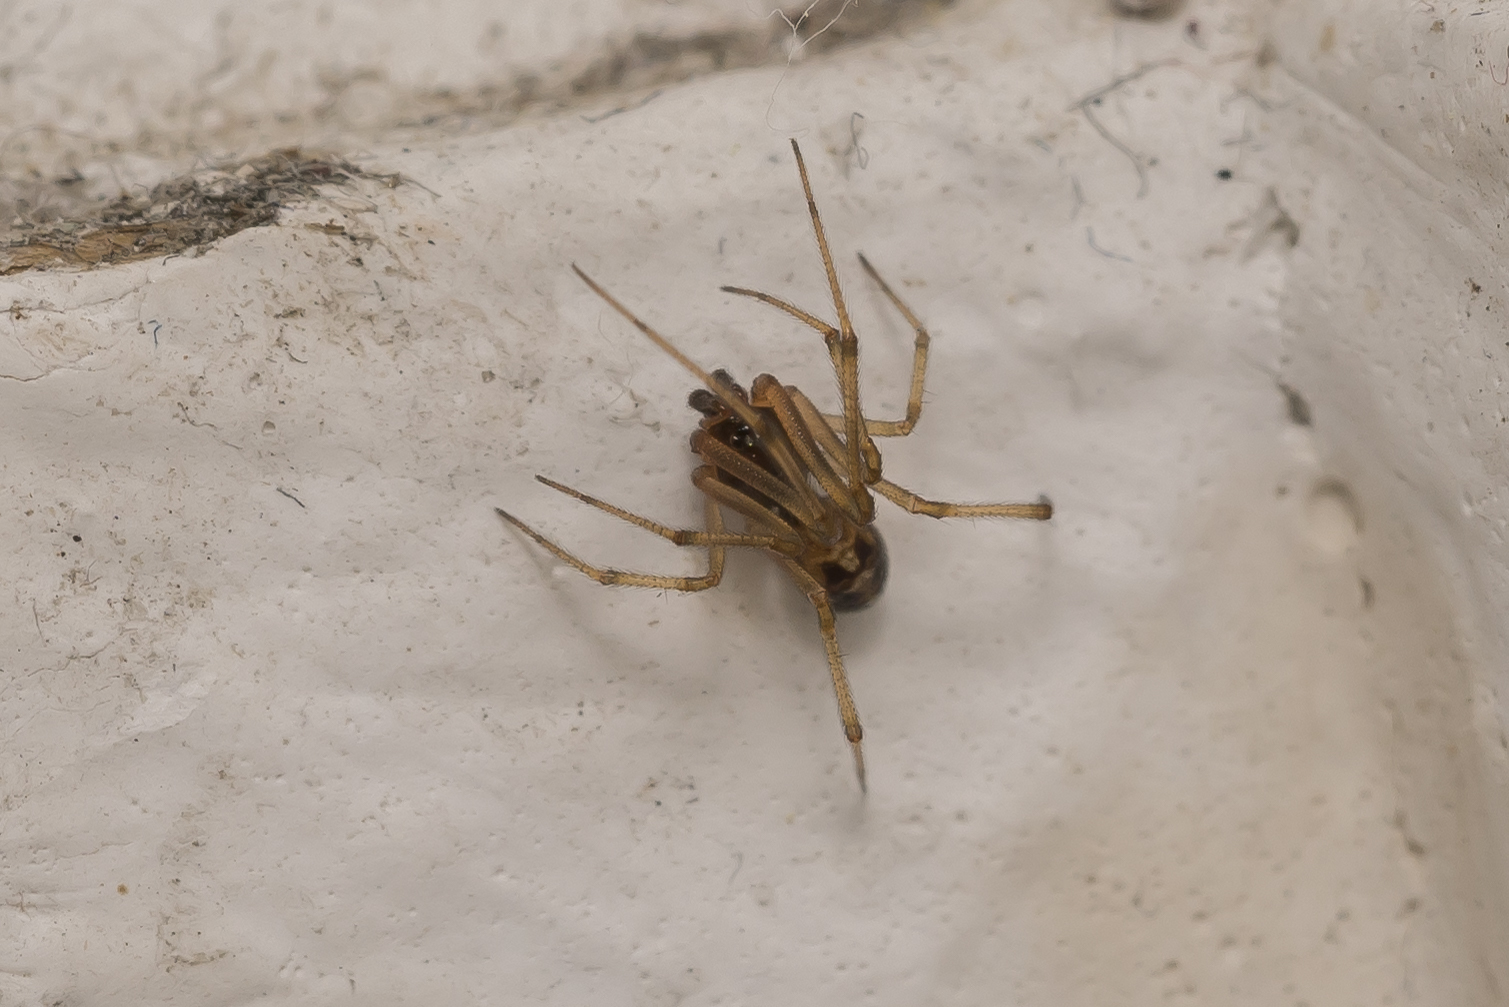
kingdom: Animalia
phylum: Arthropoda
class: Arachnida
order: Araneae
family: Theridiidae
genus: Steatoda
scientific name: Steatoda triangulosa
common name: Triangulate bud spider
